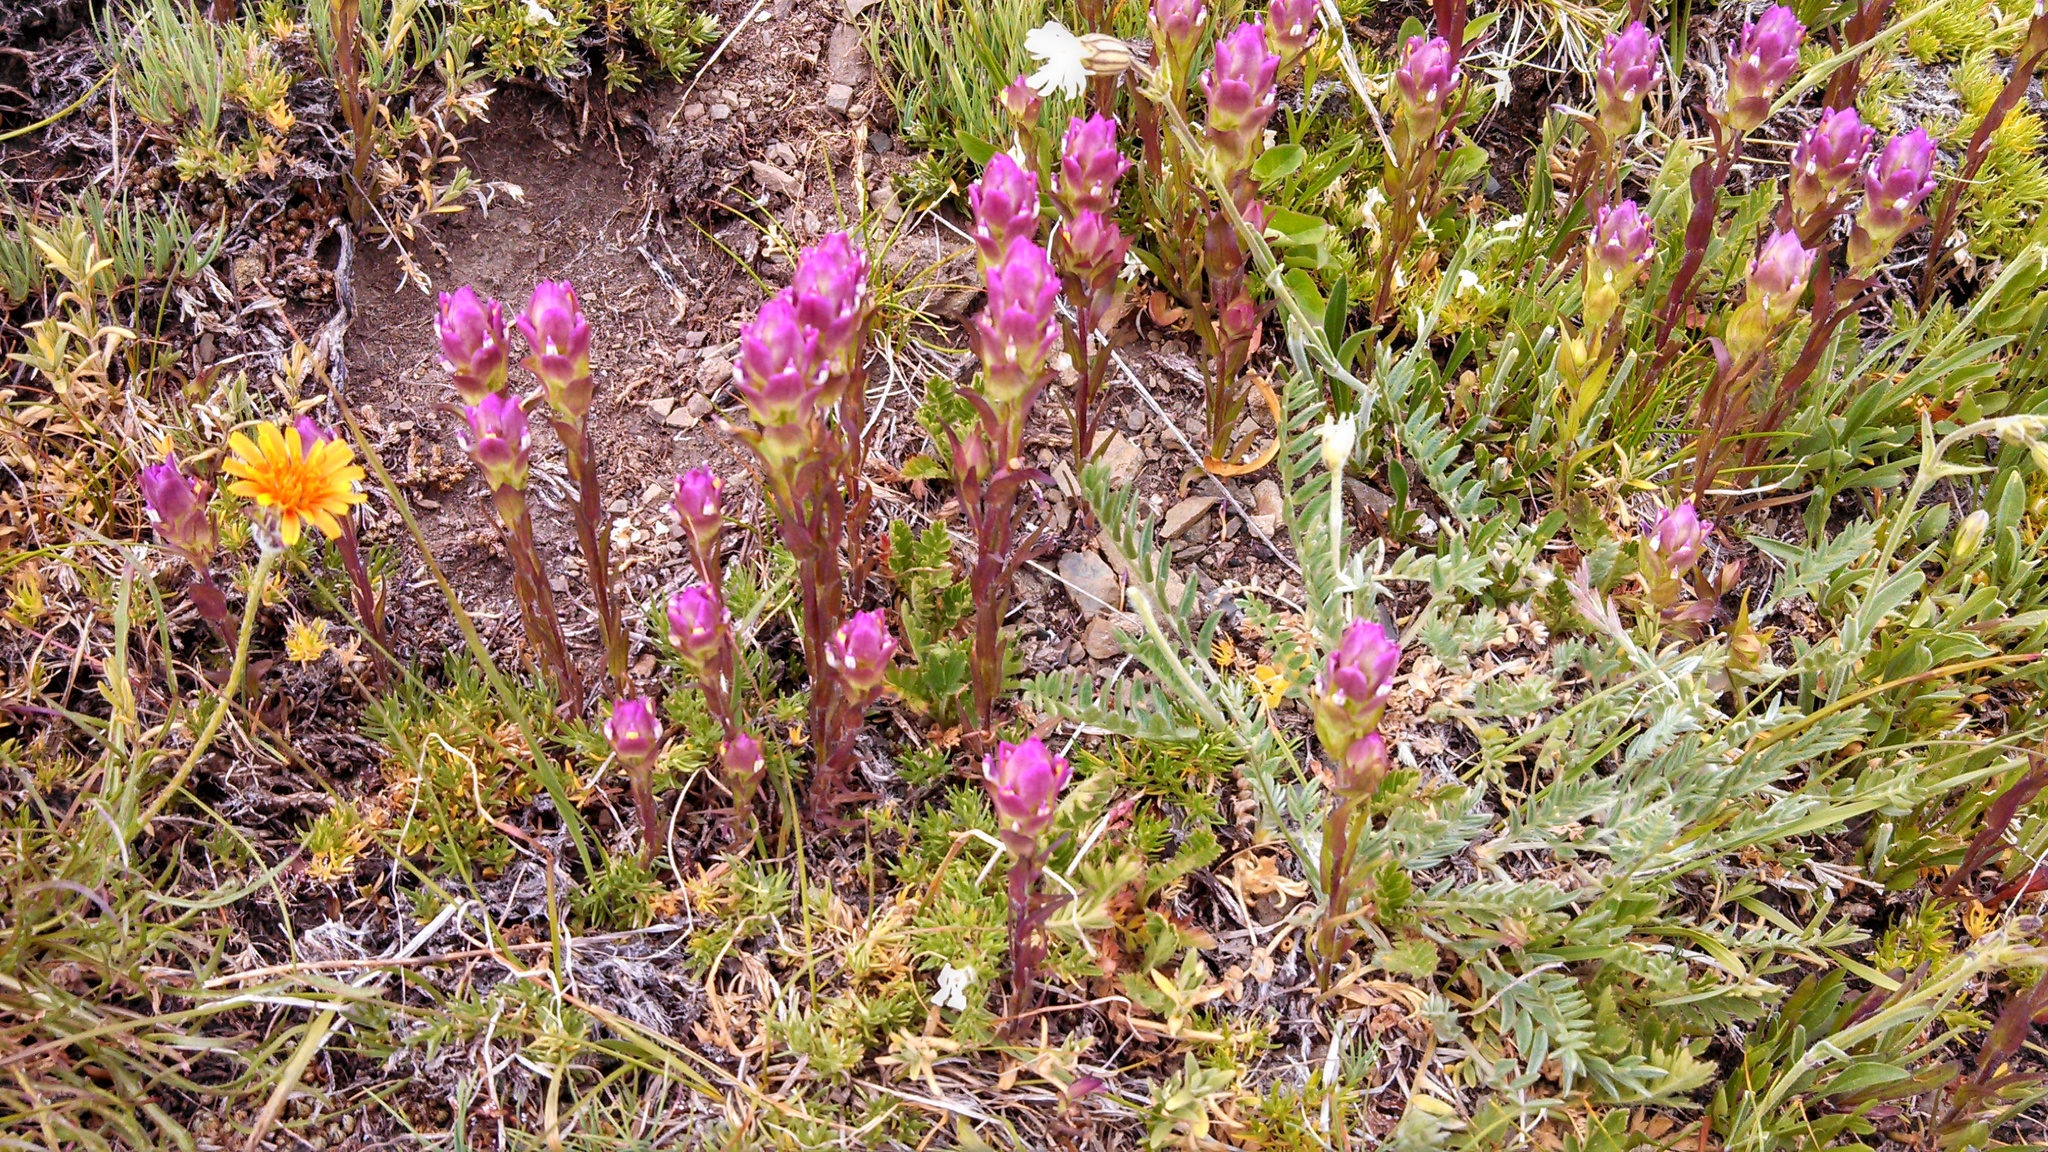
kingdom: Plantae
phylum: Tracheophyta
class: Magnoliopsida
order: Lamiales
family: Orobanchaceae
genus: Orthocarpus
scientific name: Orthocarpus imbricatus
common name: Mountain owl's-clover
